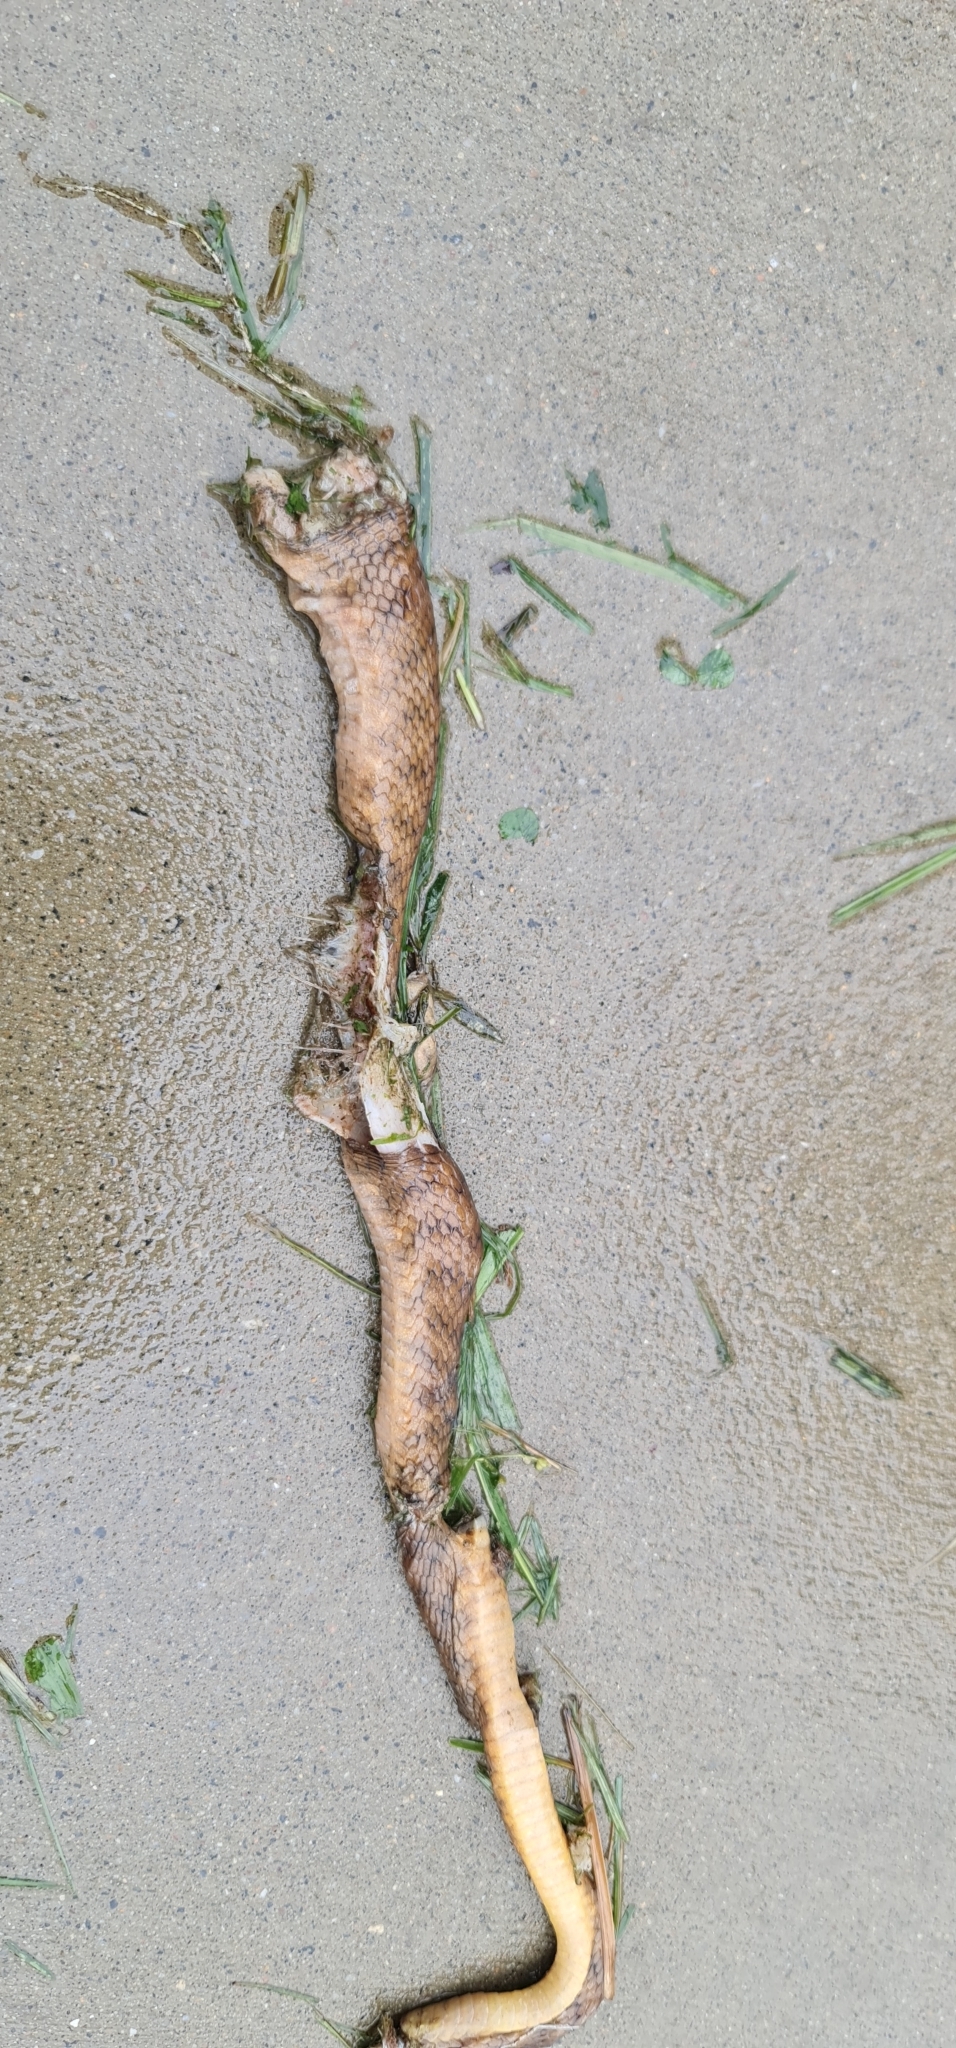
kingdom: Animalia
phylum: Chordata
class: Squamata
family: Colubridae
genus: Boiga
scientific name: Boiga irregularis
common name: Brown tree snake
